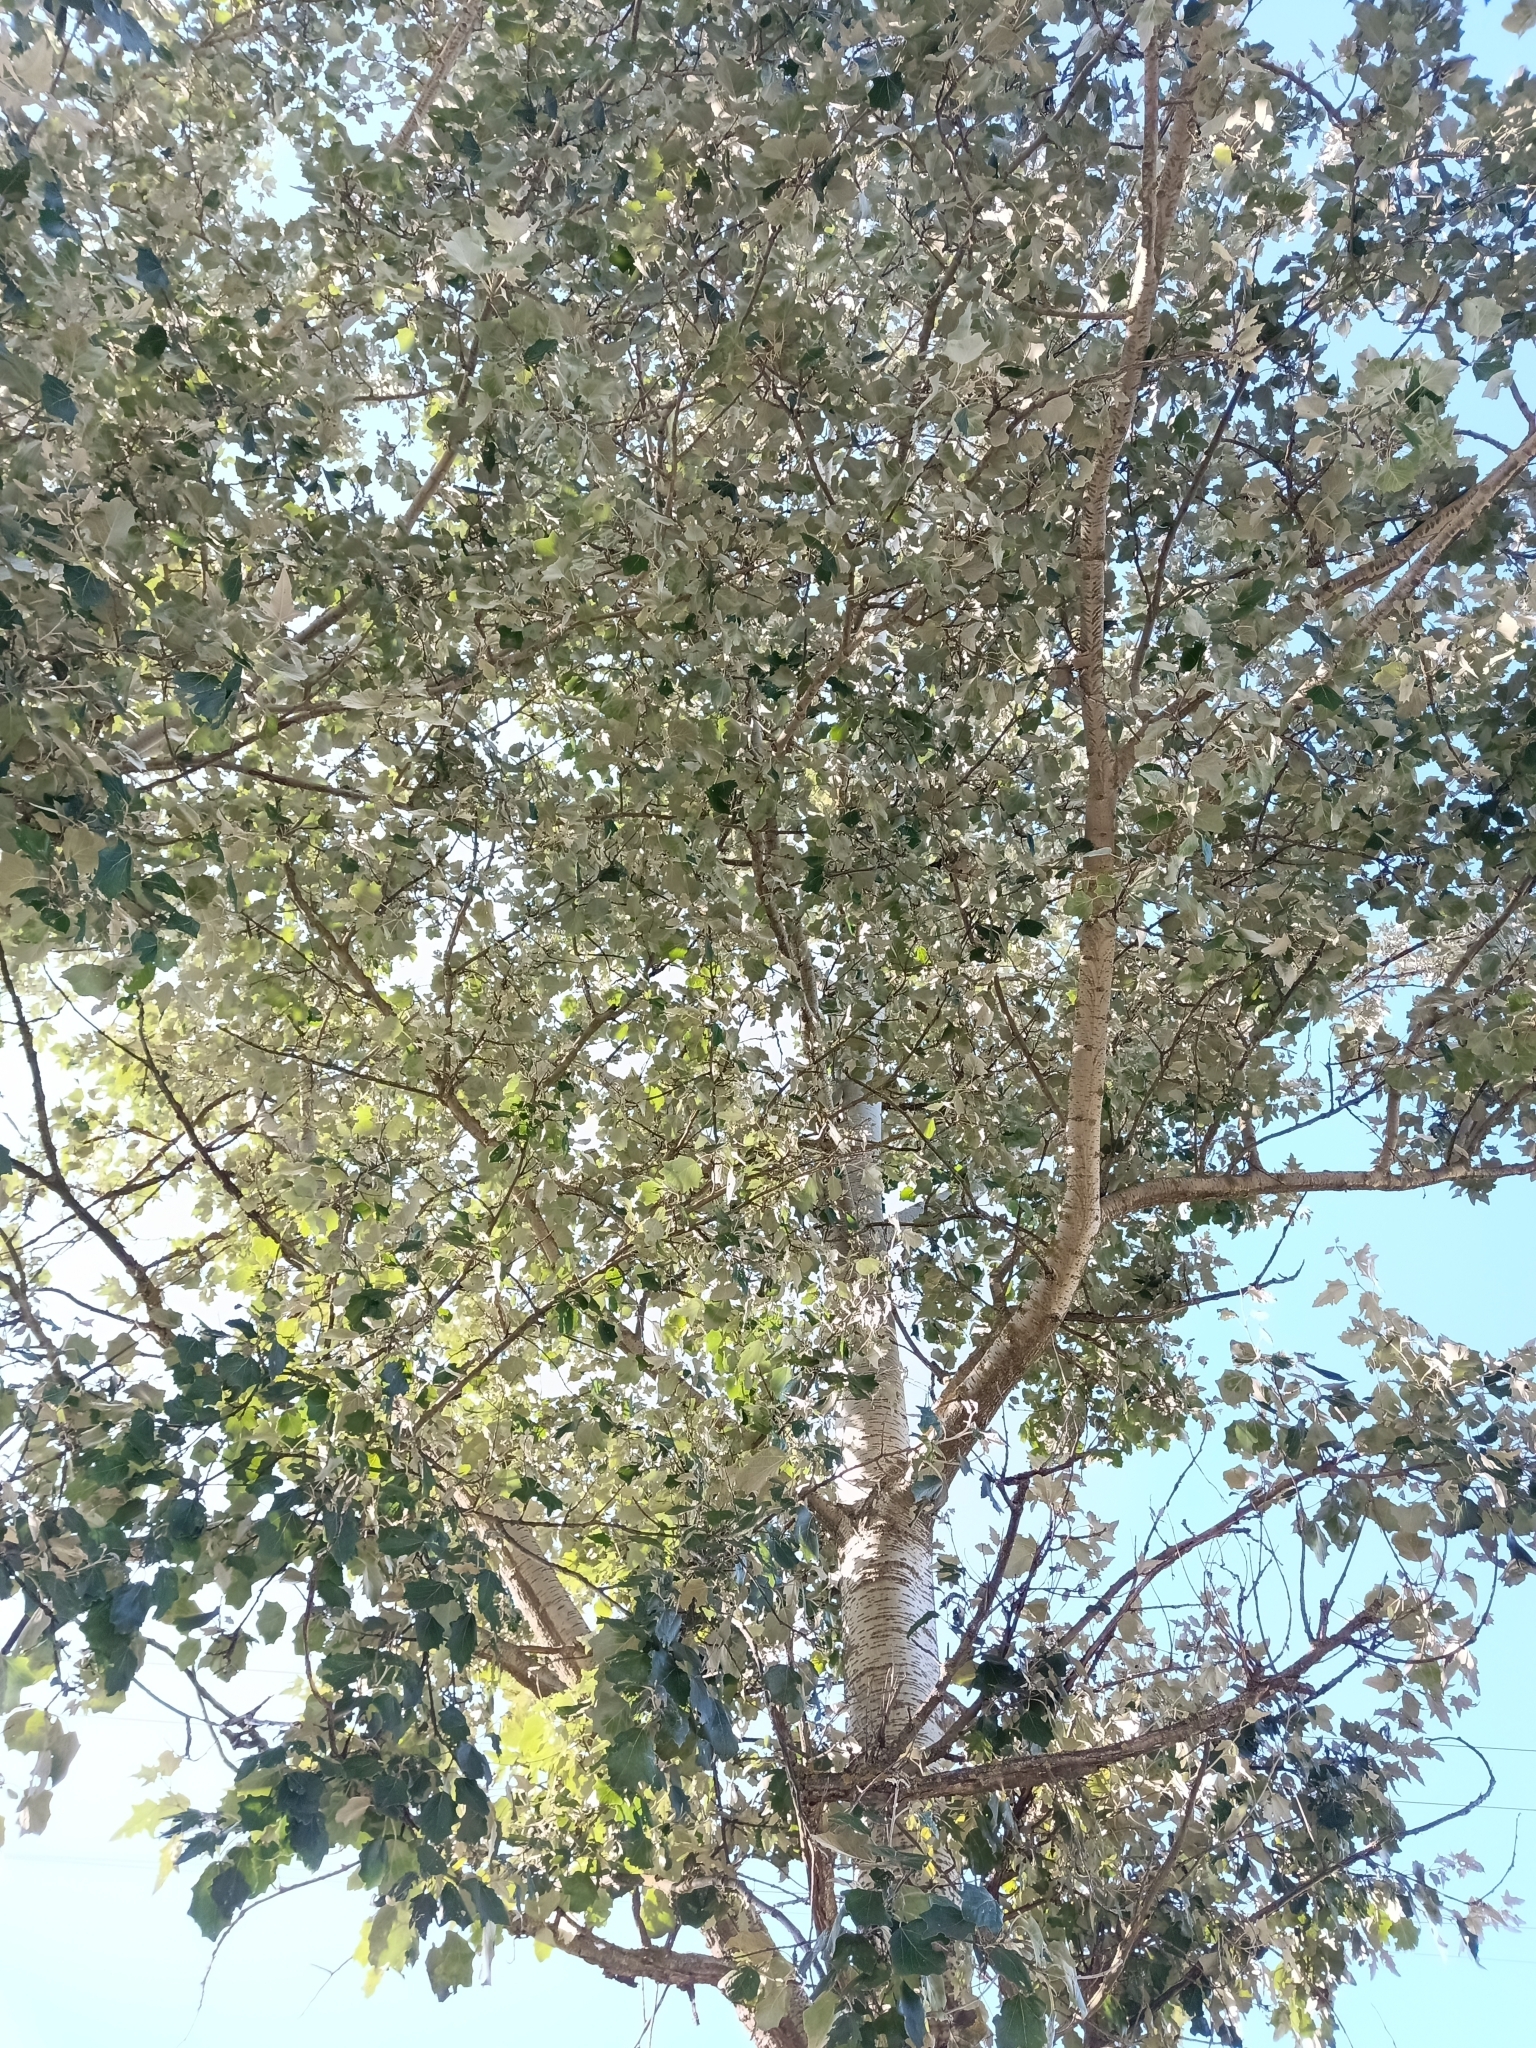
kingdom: Plantae
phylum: Tracheophyta
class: Magnoliopsida
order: Malpighiales
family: Salicaceae
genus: Populus
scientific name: Populus canescens
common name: Gray poplar
